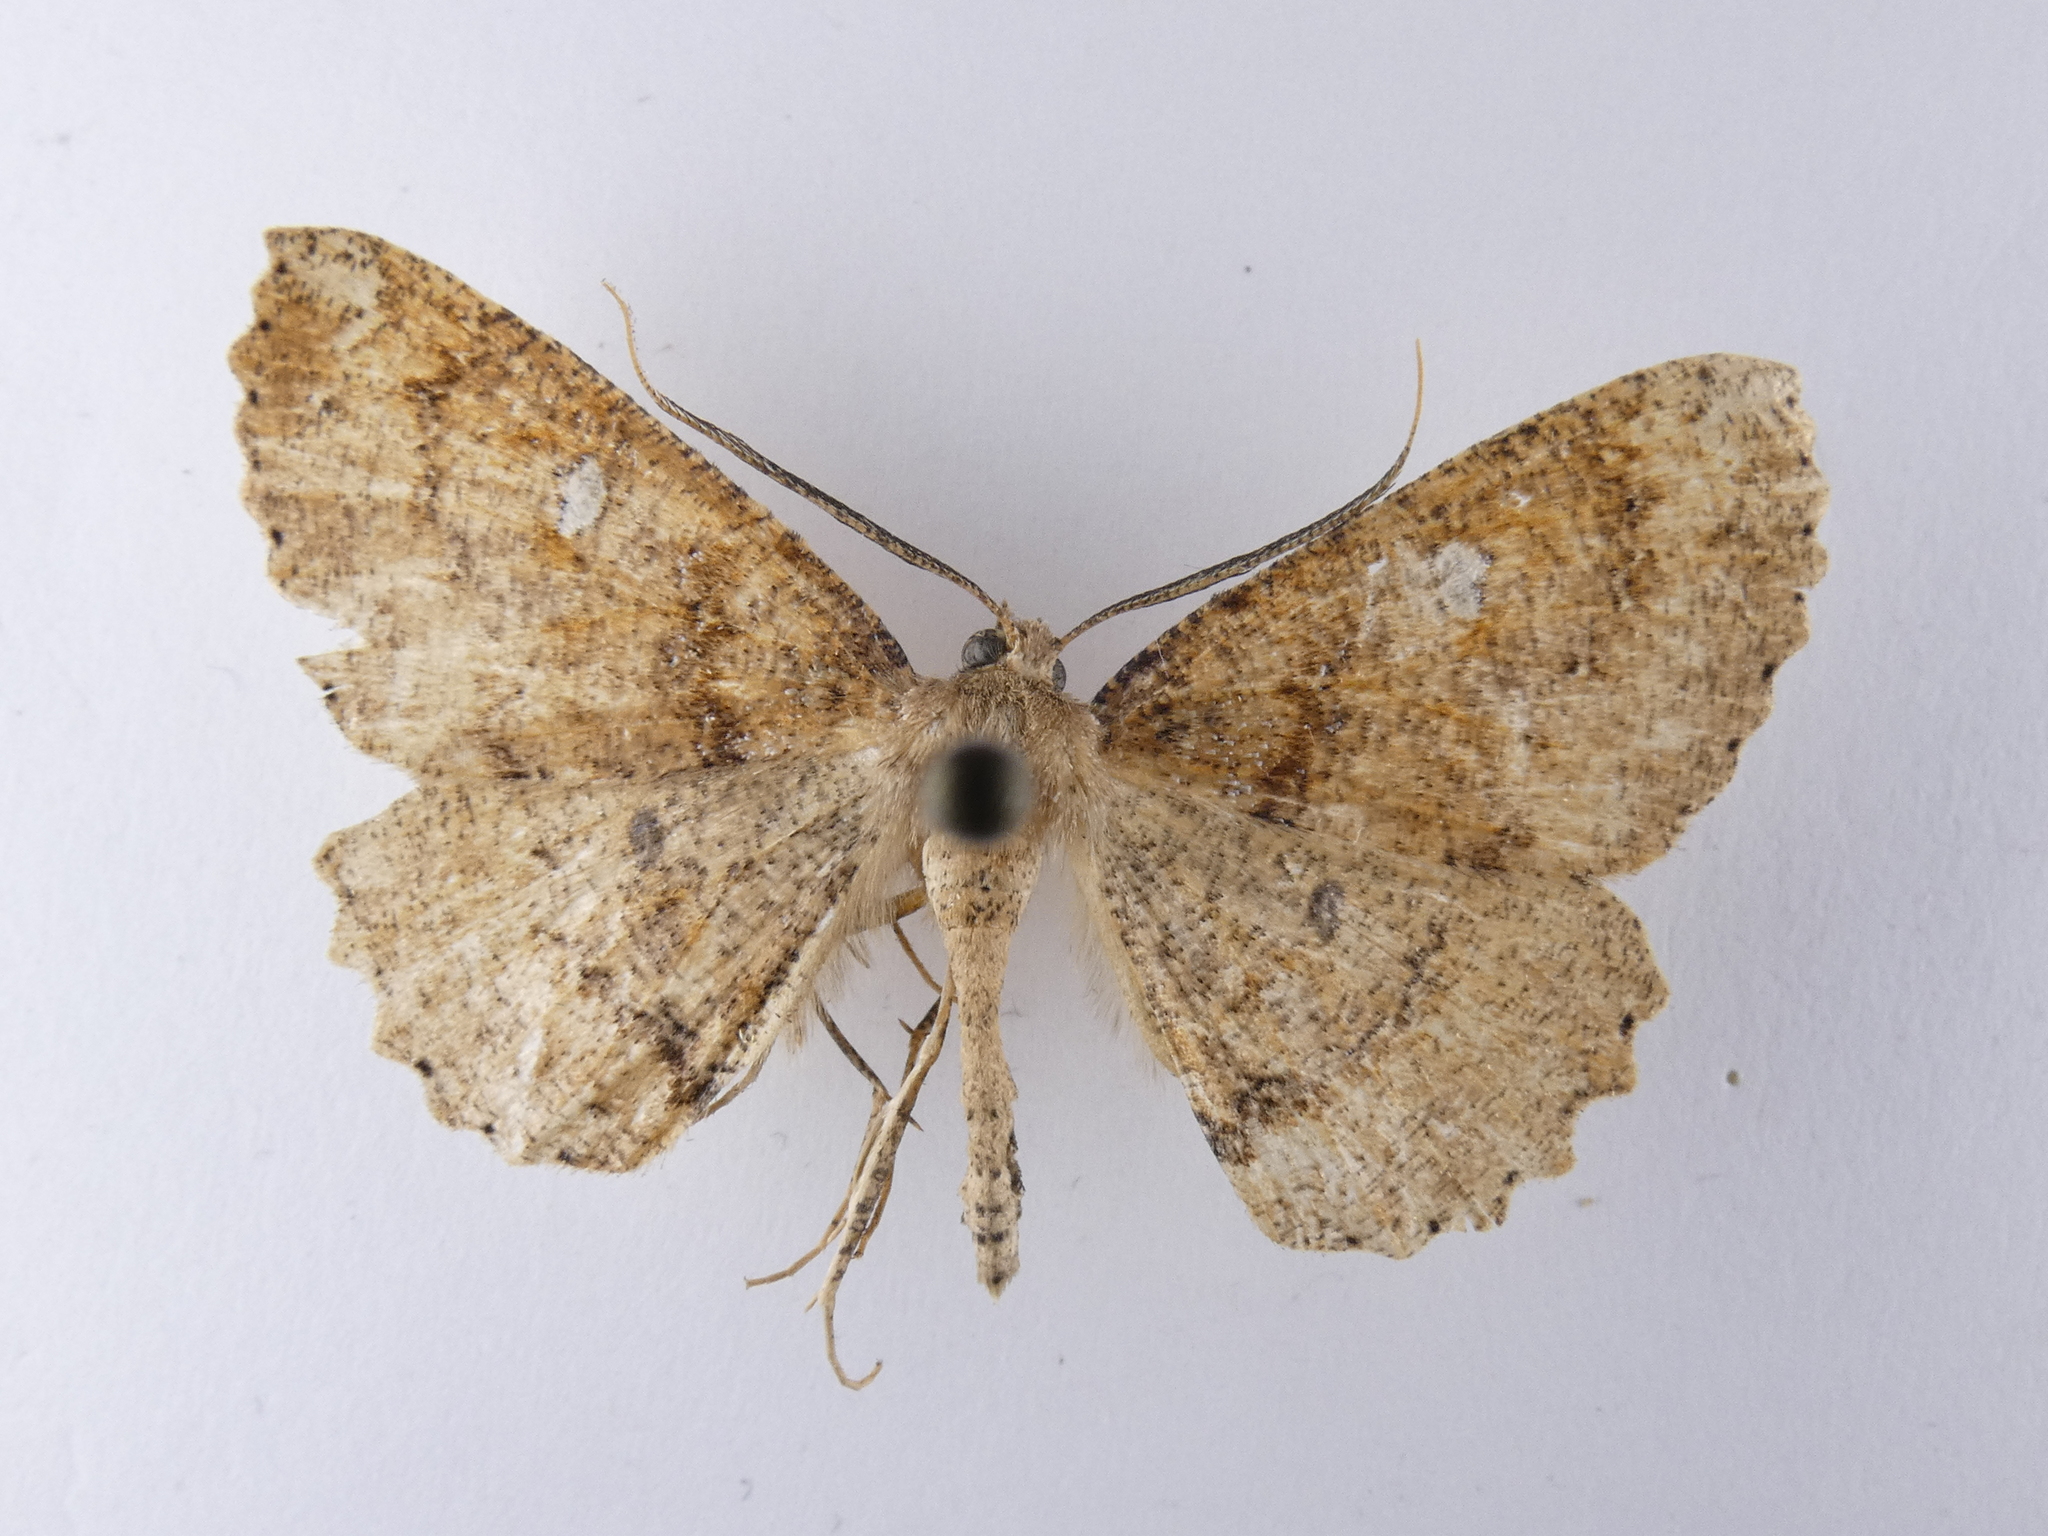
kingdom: Animalia
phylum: Arthropoda
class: Insecta
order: Lepidoptera
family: Geometridae
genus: Cleora
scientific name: Cleora scriptaria
